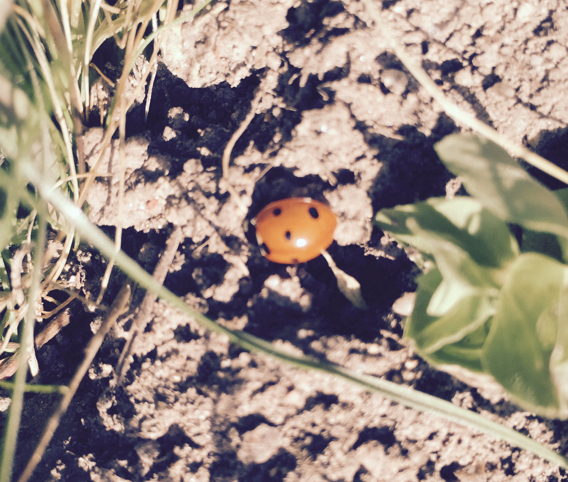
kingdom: Animalia
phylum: Arthropoda
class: Insecta
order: Coleoptera
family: Coccinellidae
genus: Coccinella
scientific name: Coccinella septempunctata
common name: Sevenspotted lady beetle
